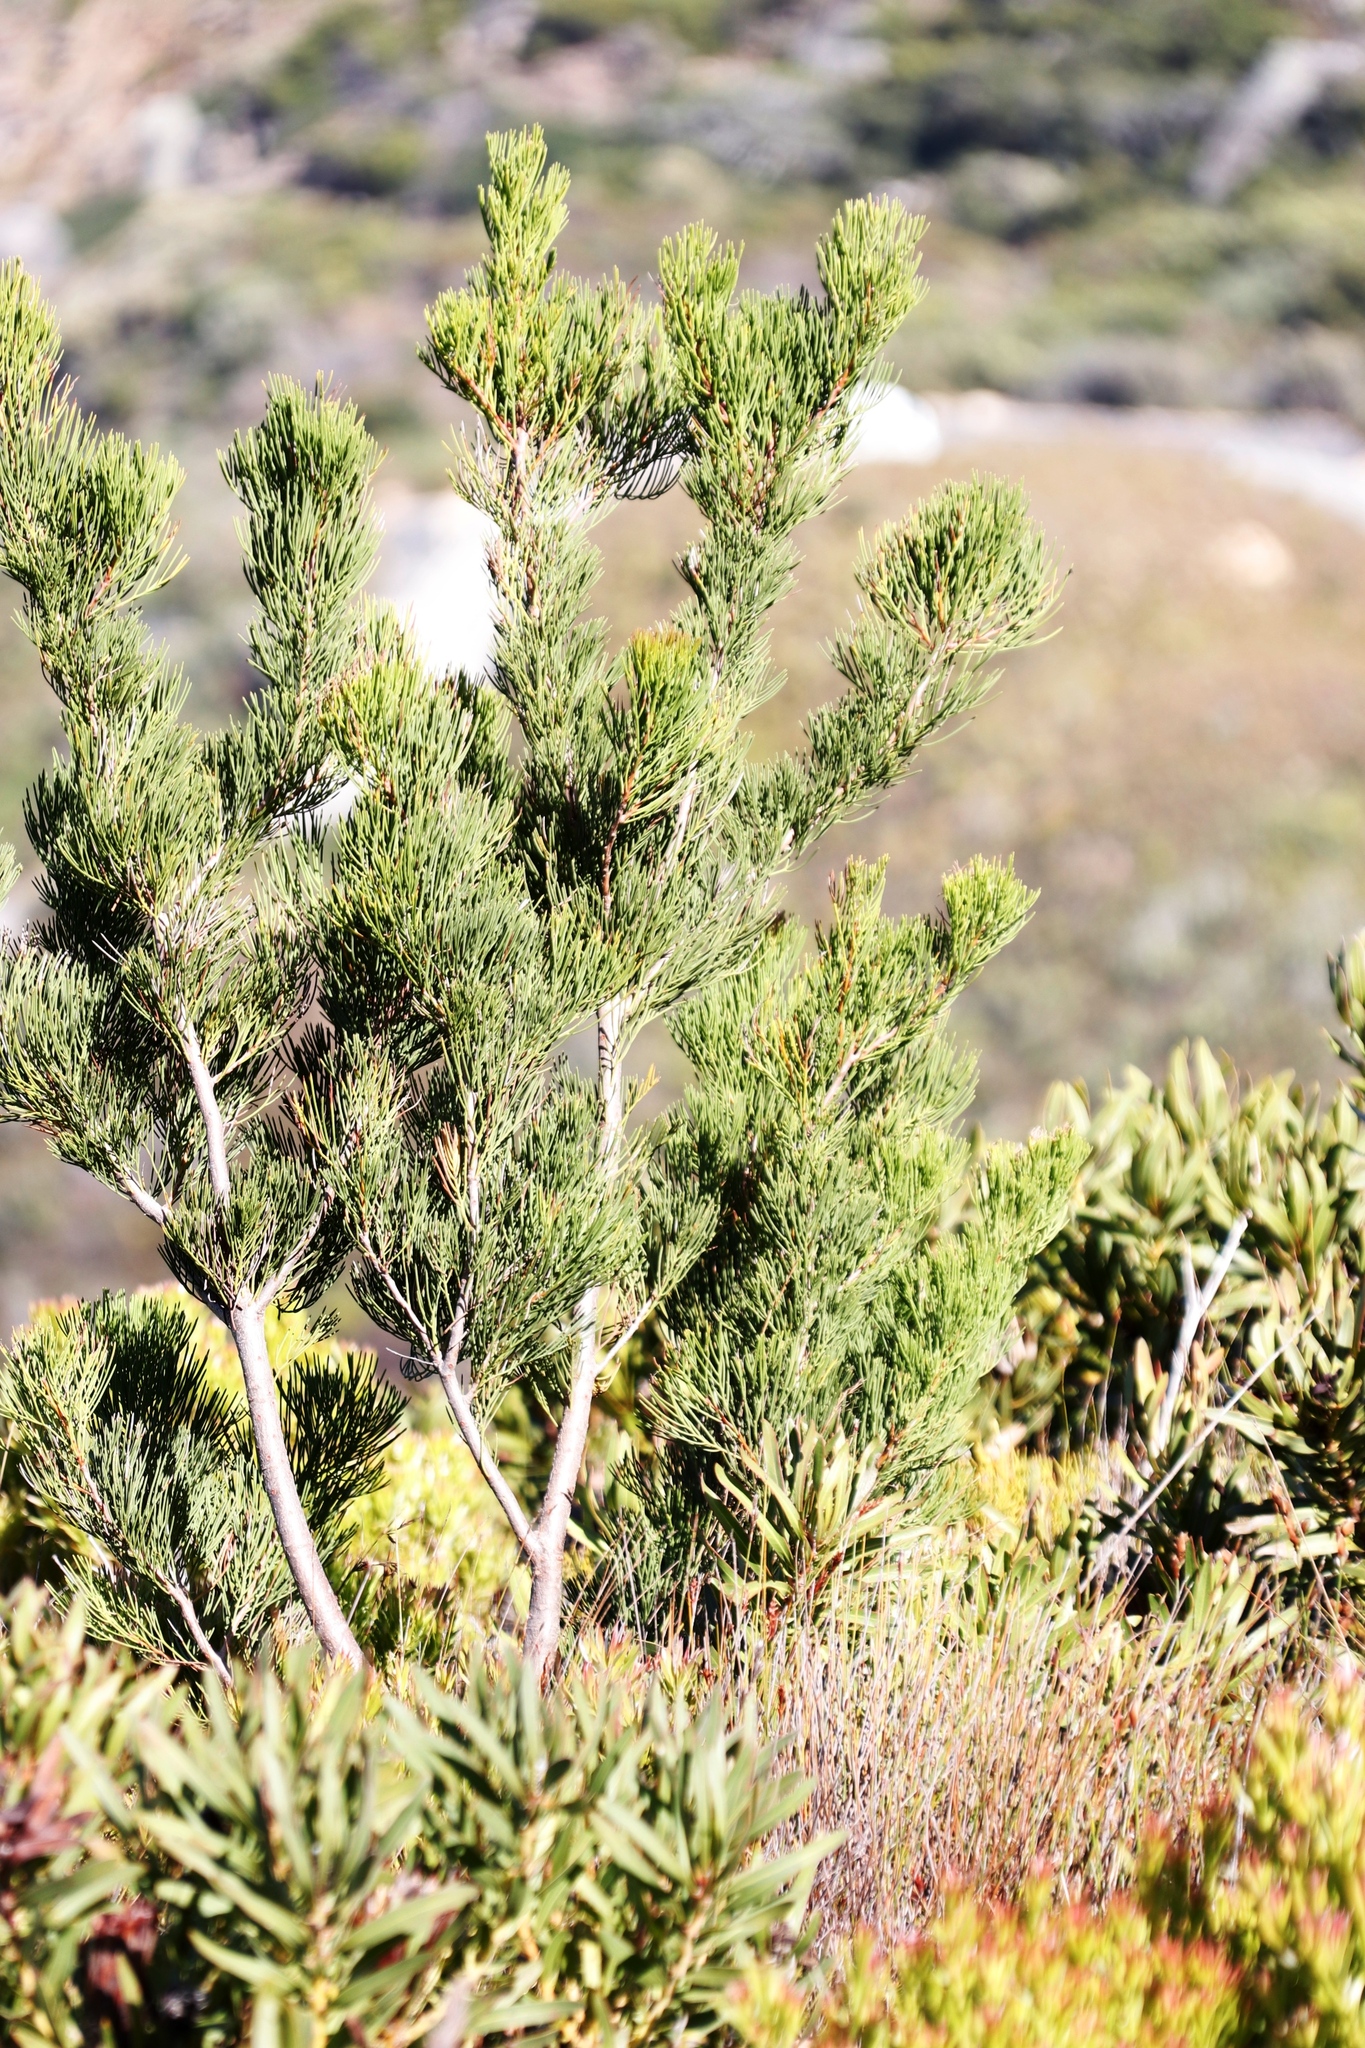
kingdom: Plantae
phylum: Tracheophyta
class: Magnoliopsida
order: Proteales
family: Proteaceae
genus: Hakea
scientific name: Hakea drupacea
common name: Sweet hakea
